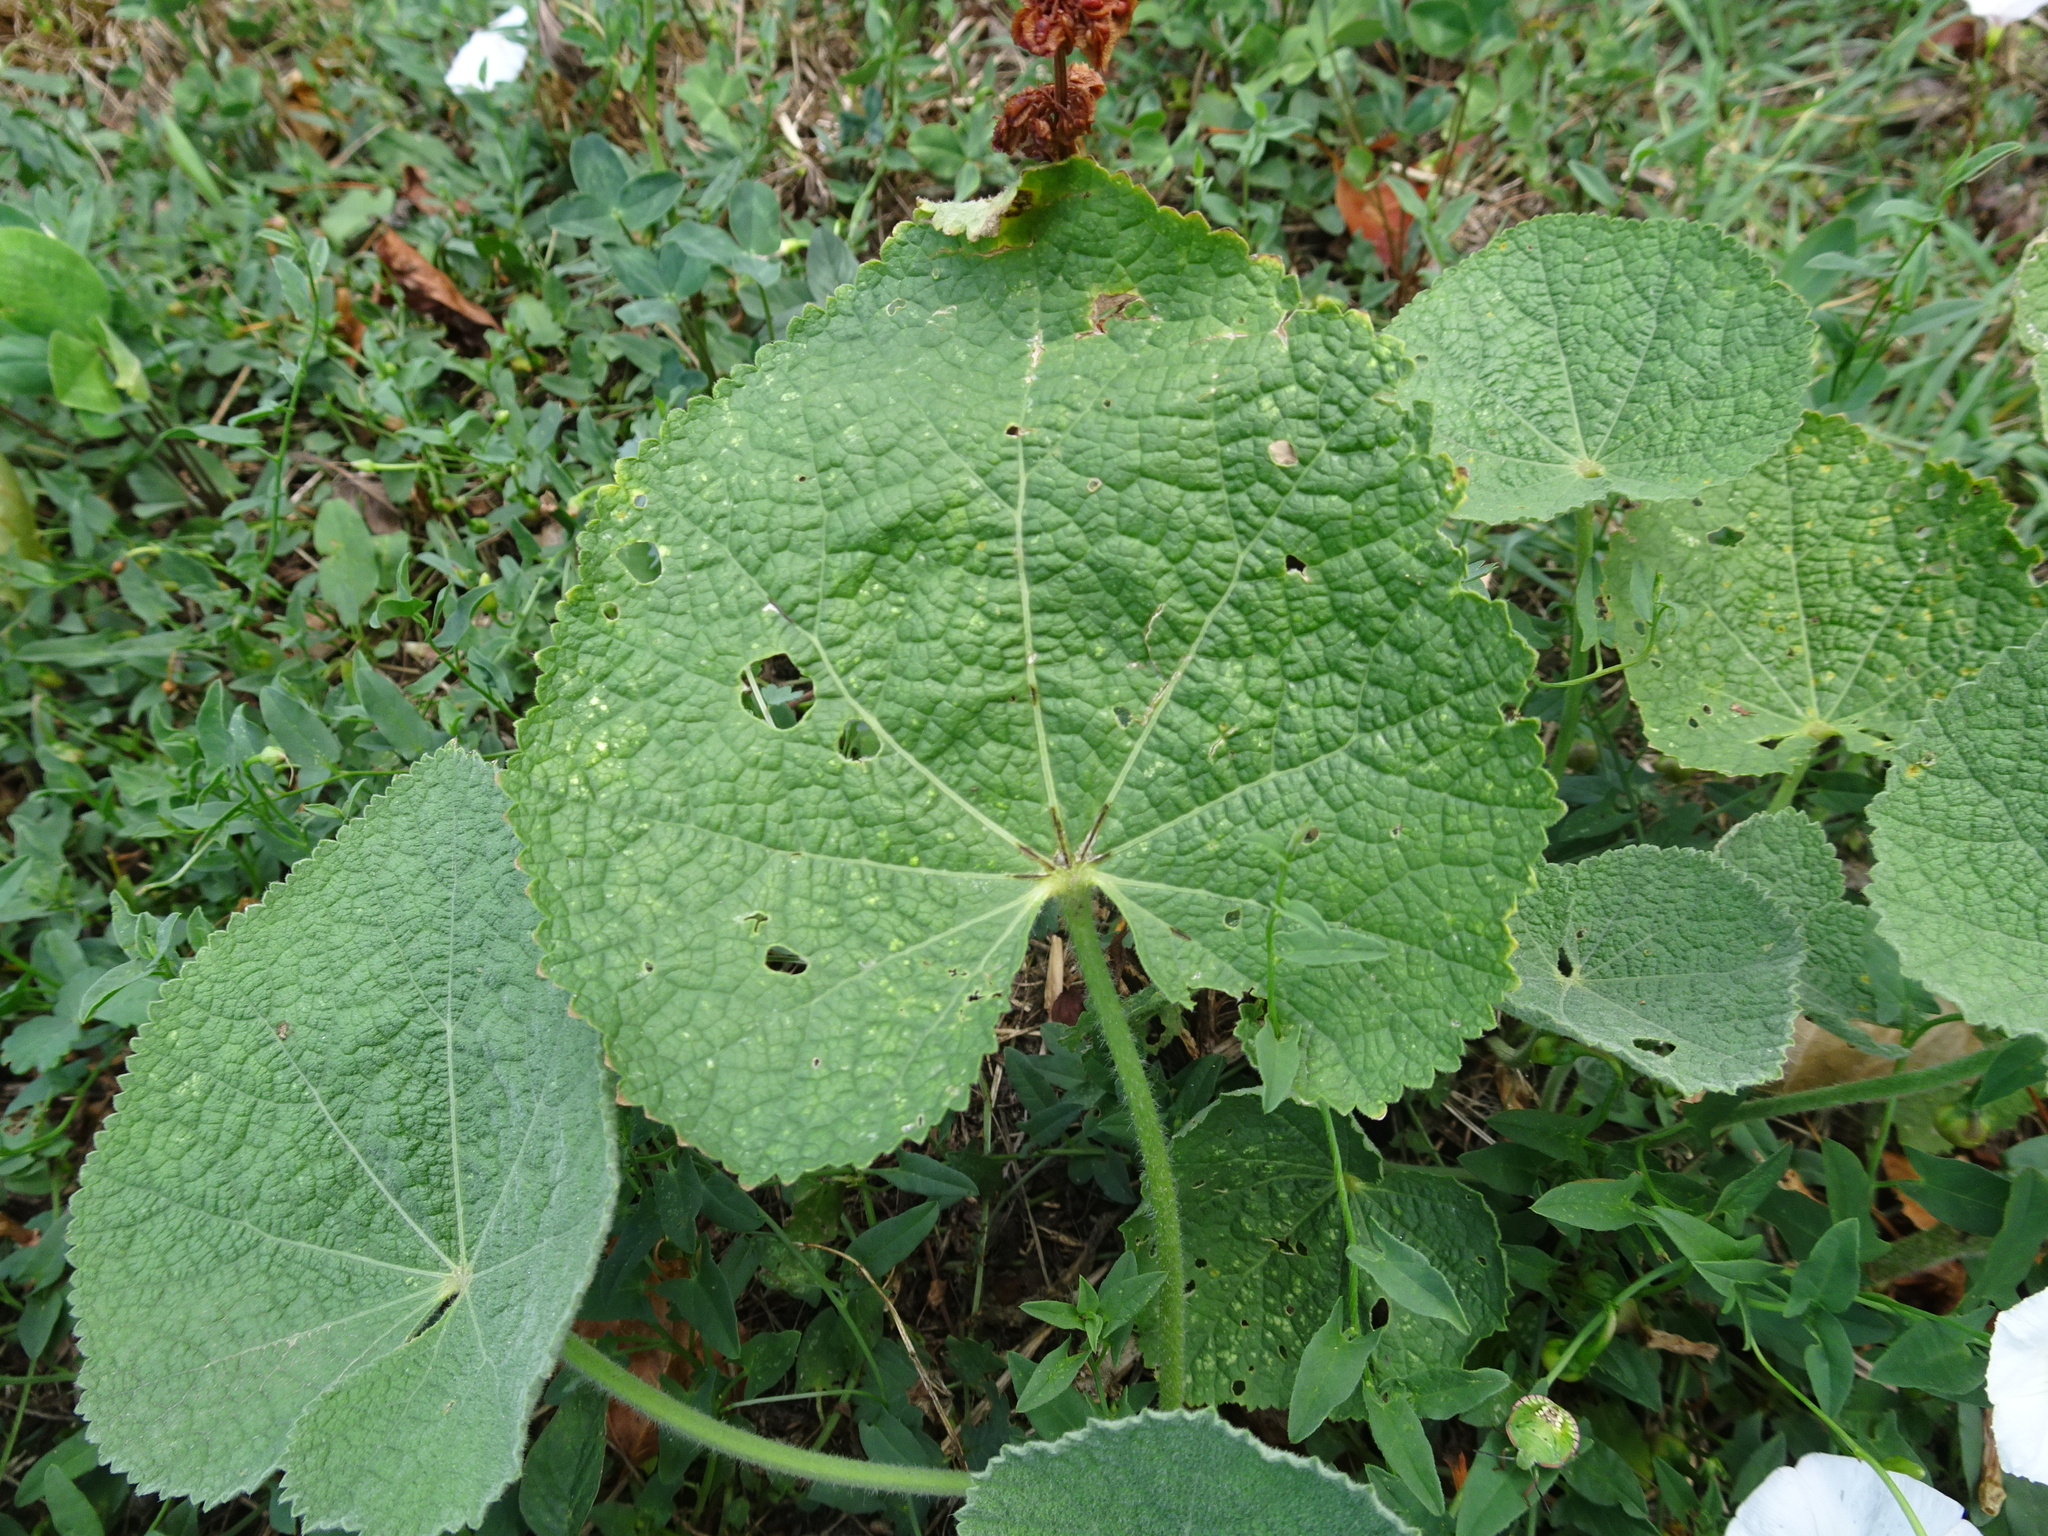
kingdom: Plantae
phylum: Tracheophyta
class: Magnoliopsida
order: Malvales
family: Malvaceae
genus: Alcea
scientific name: Alcea rosea
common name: Hollyhock
